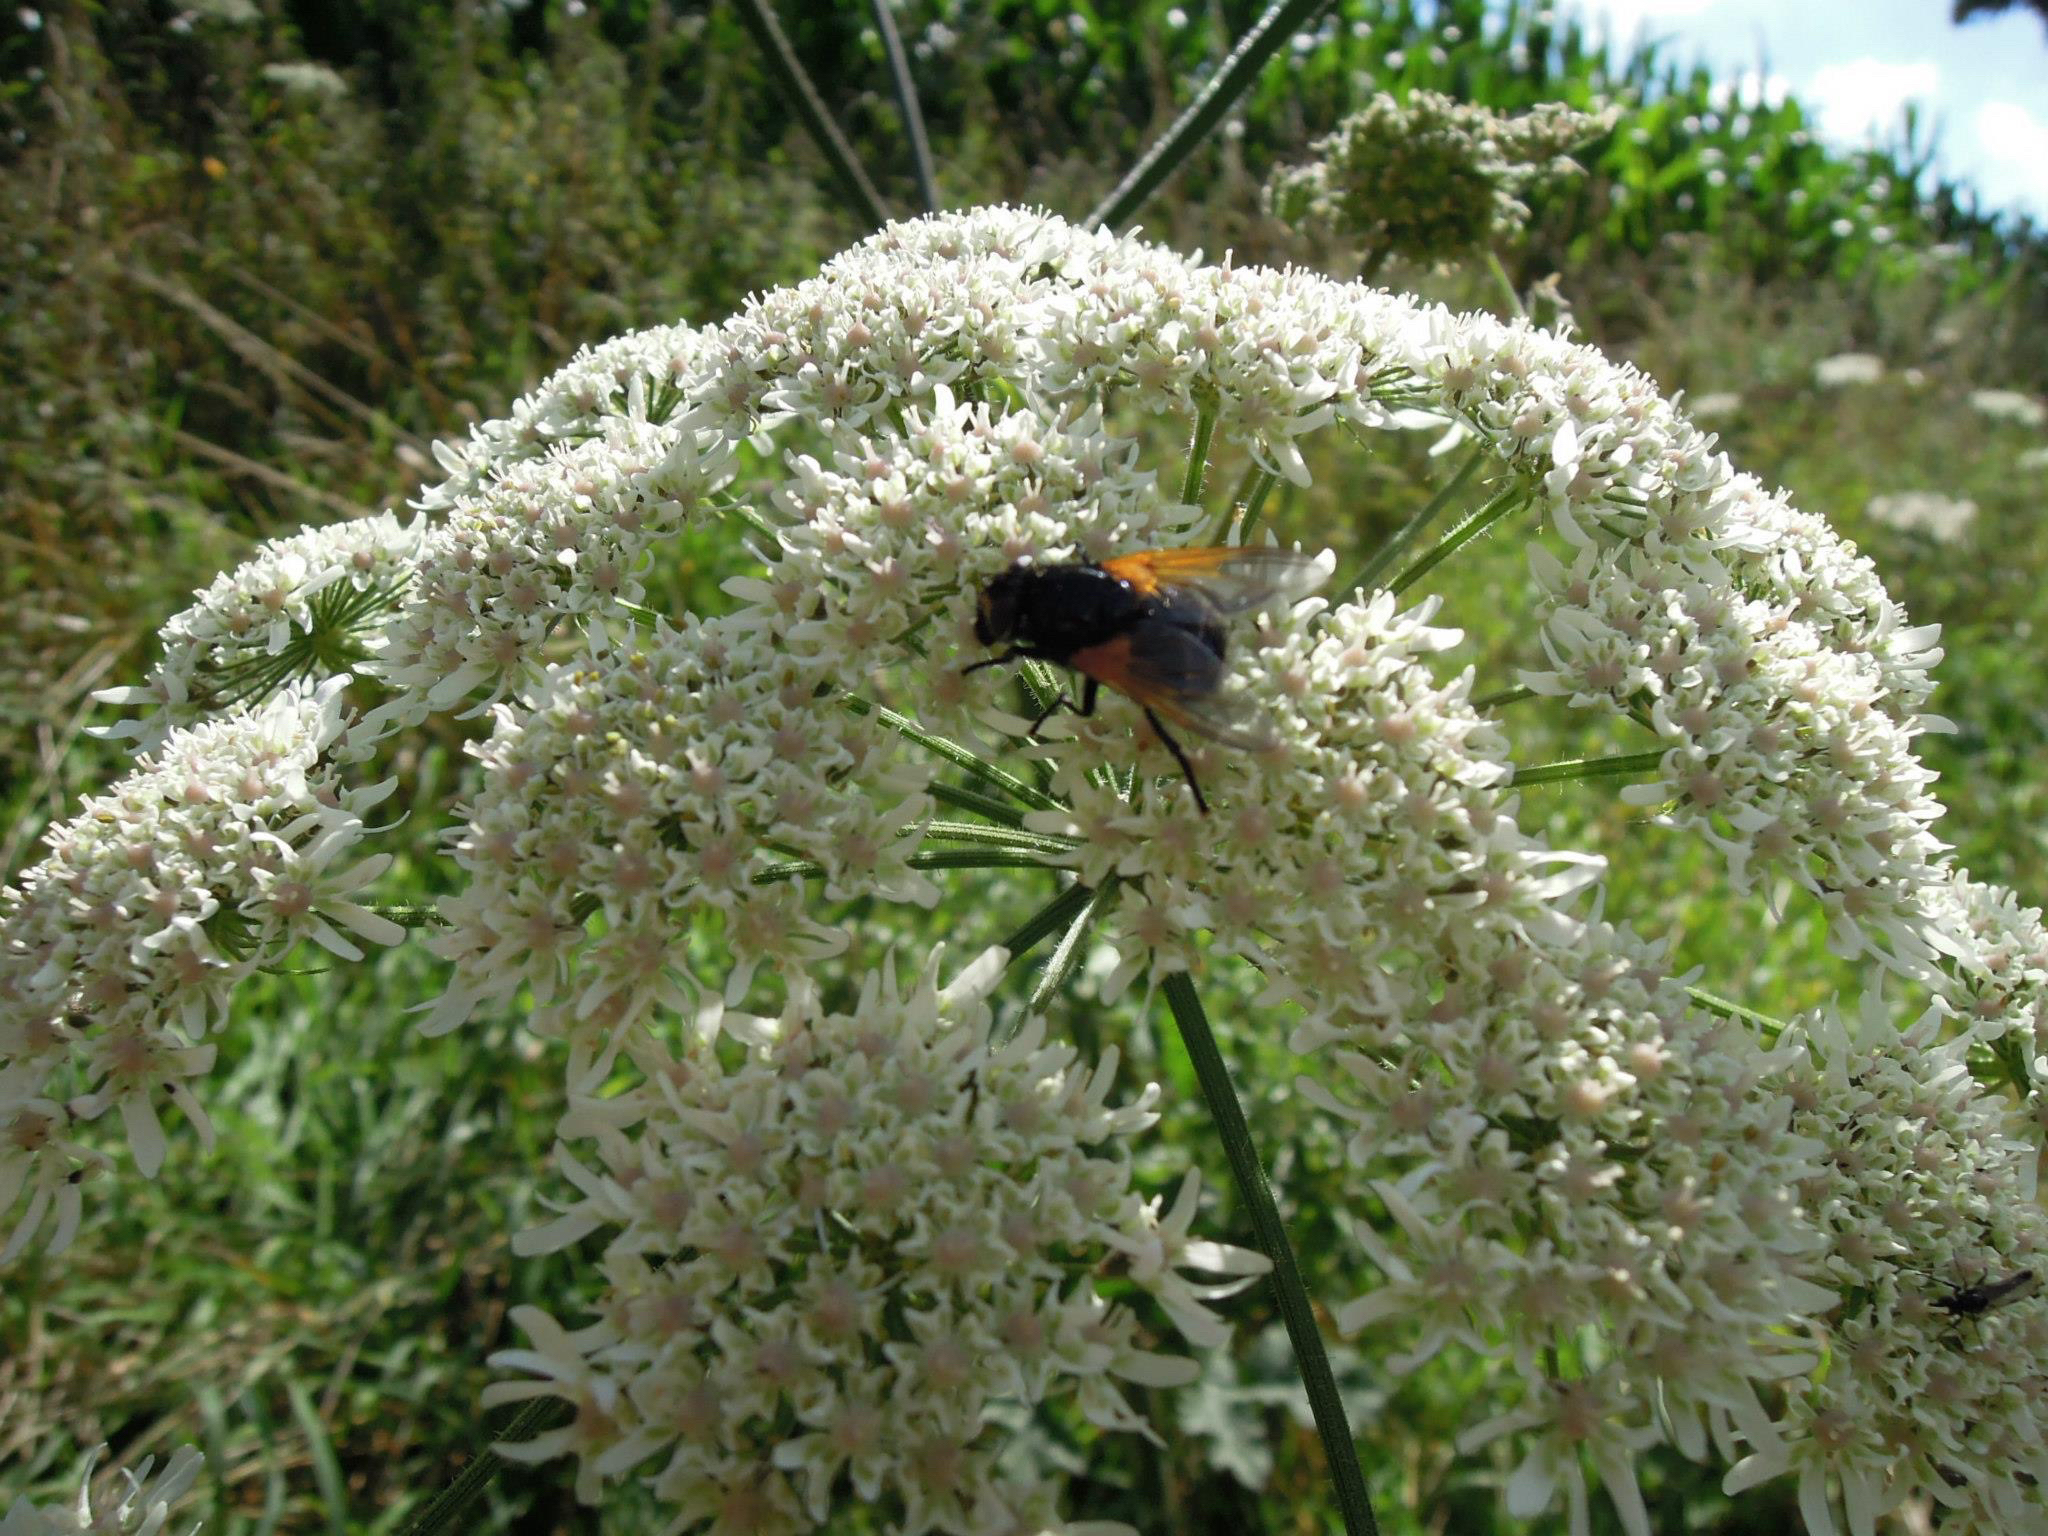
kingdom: Animalia
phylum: Arthropoda
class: Insecta
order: Diptera
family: Muscidae
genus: Mesembrina
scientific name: Mesembrina meridiana
